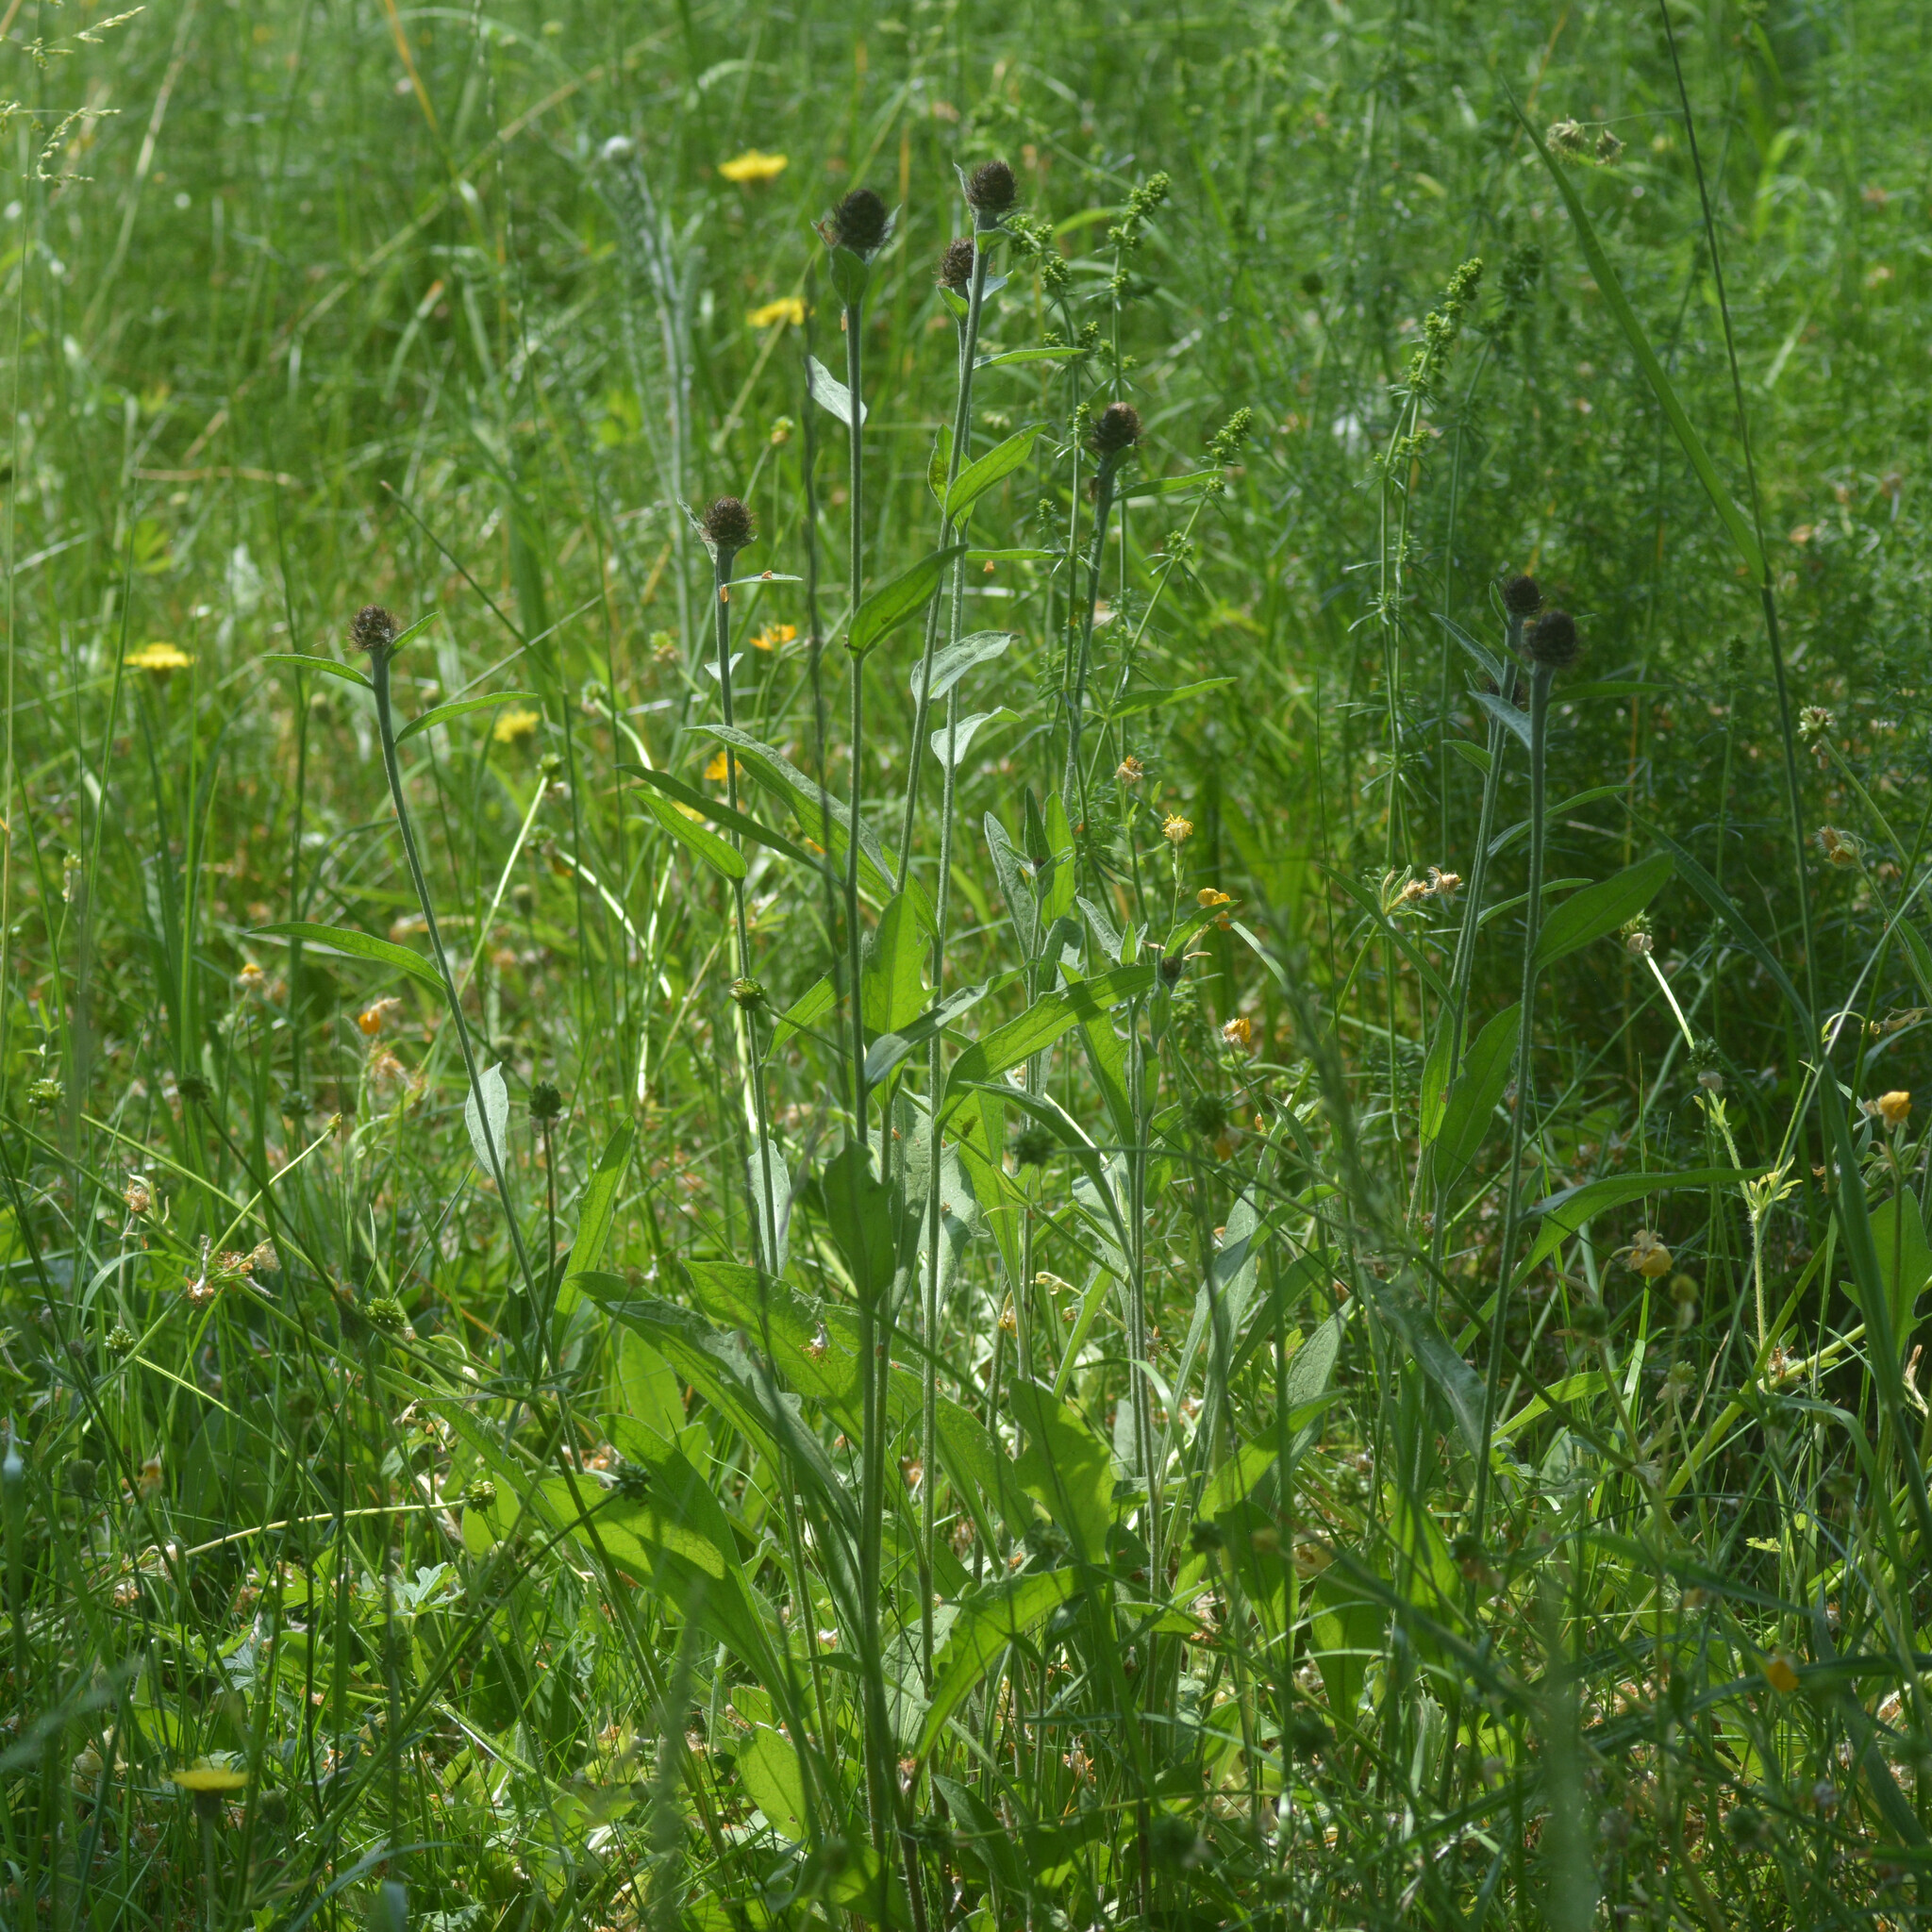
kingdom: Plantae
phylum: Tracheophyta
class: Magnoliopsida
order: Asterales
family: Asteraceae
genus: Centaurea
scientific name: Centaurea nigra
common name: Lesser knapweed
